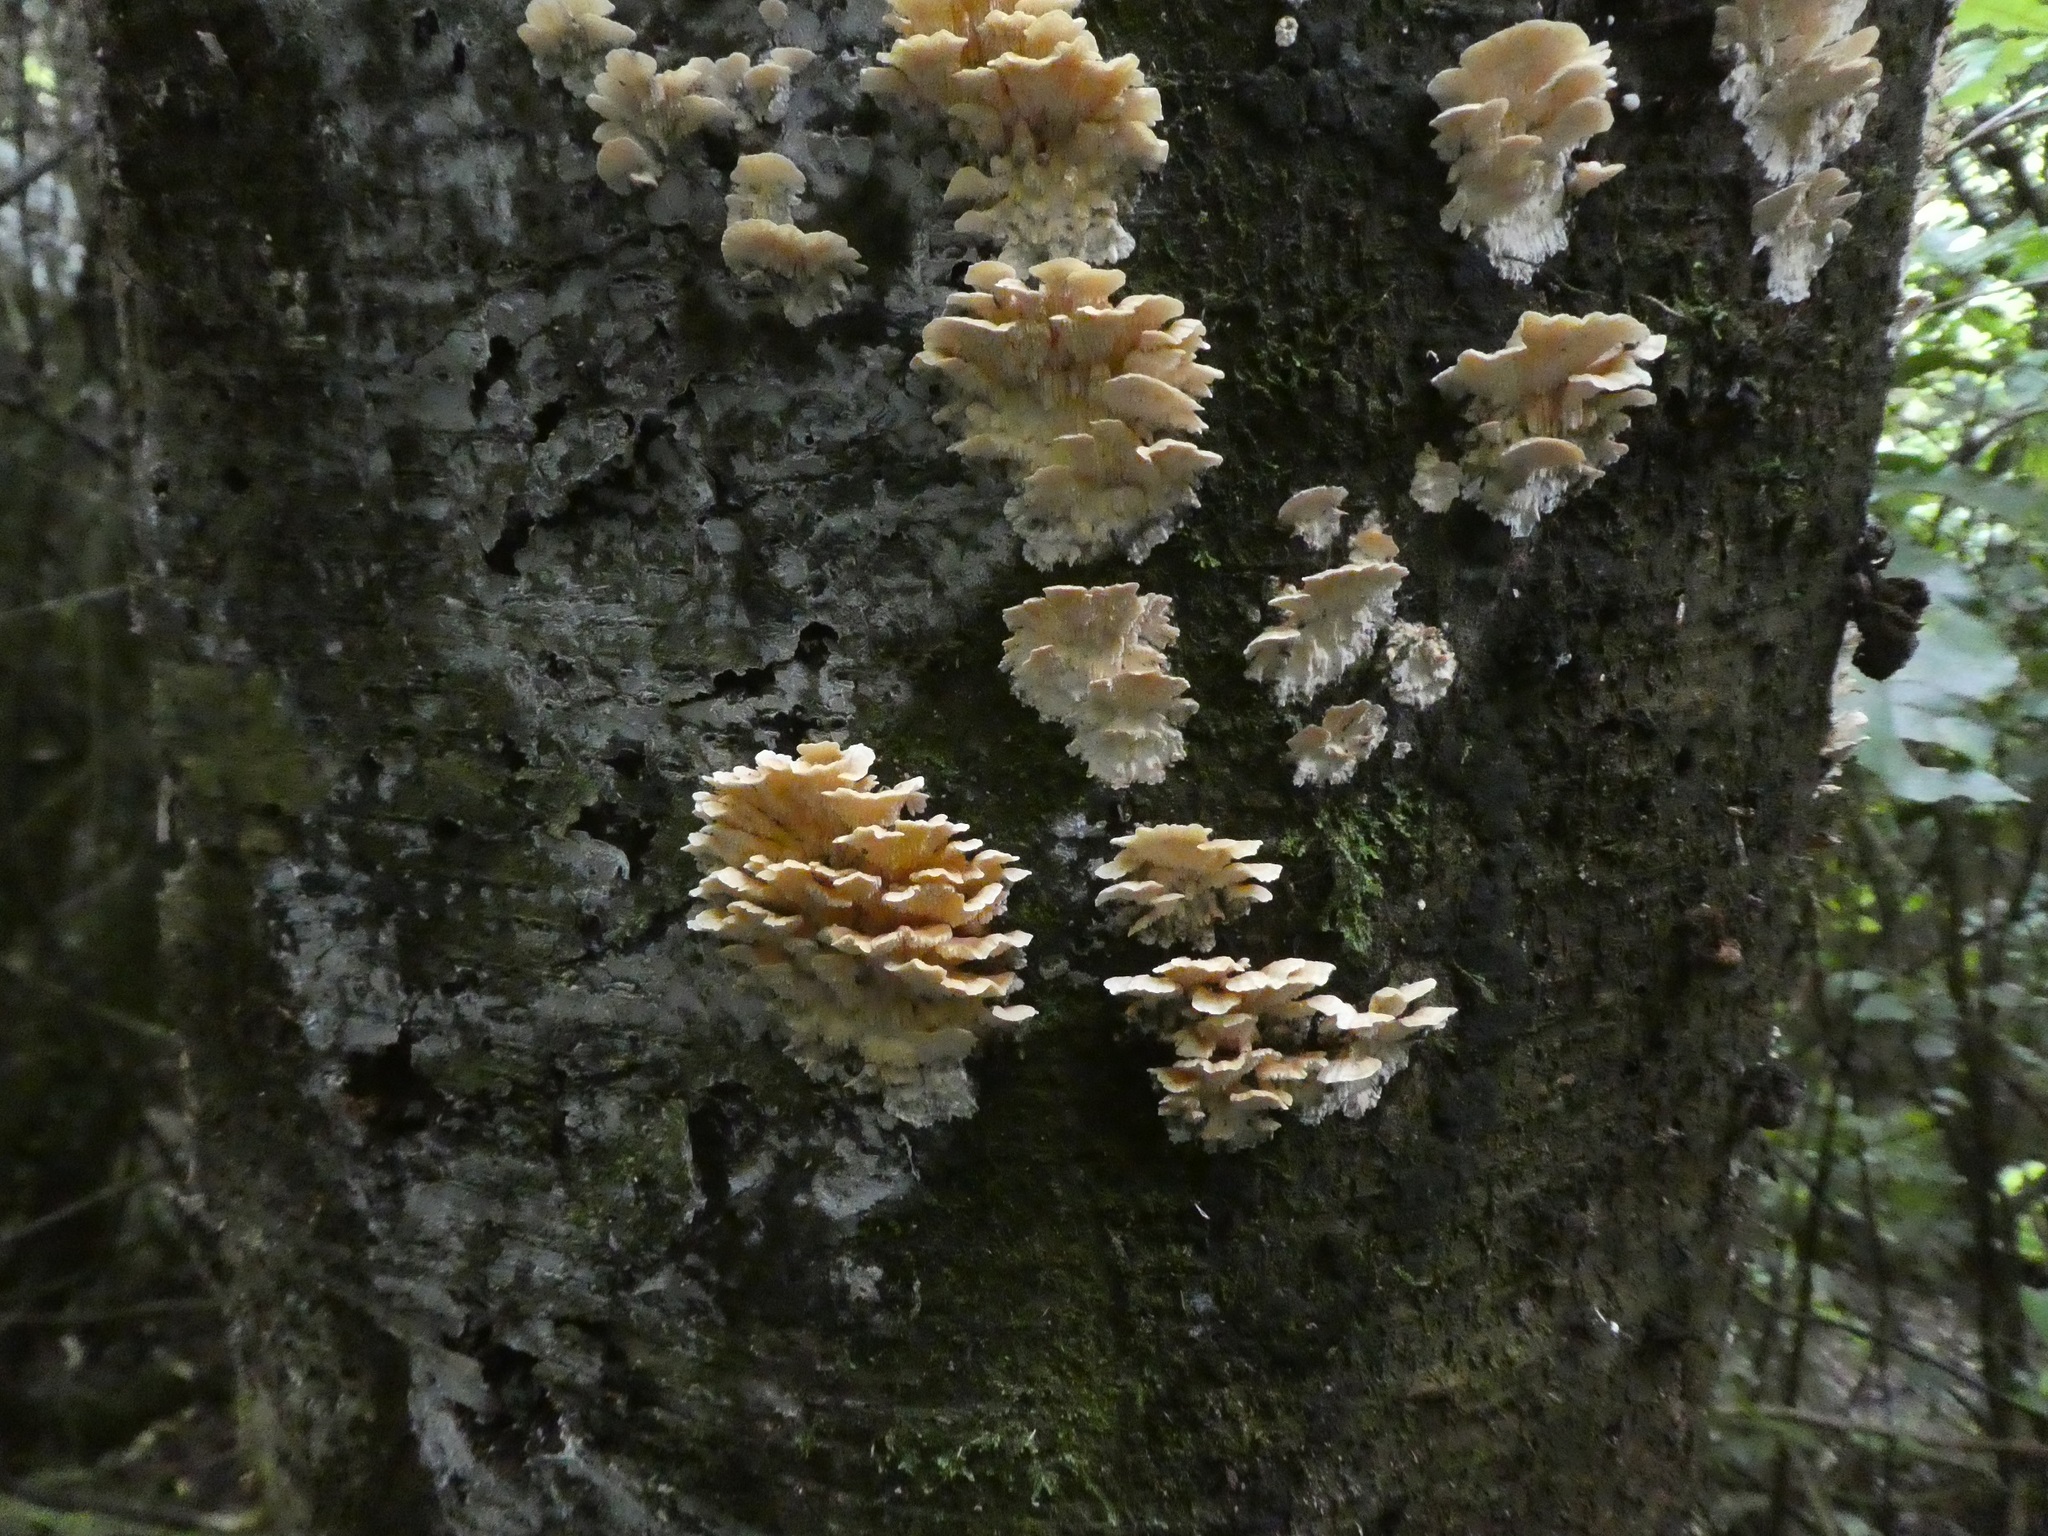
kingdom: Fungi
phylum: Basidiomycota
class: Agaricomycetes
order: Polyporales
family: Cerrenaceae
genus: Cerrena
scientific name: Cerrena zonata
